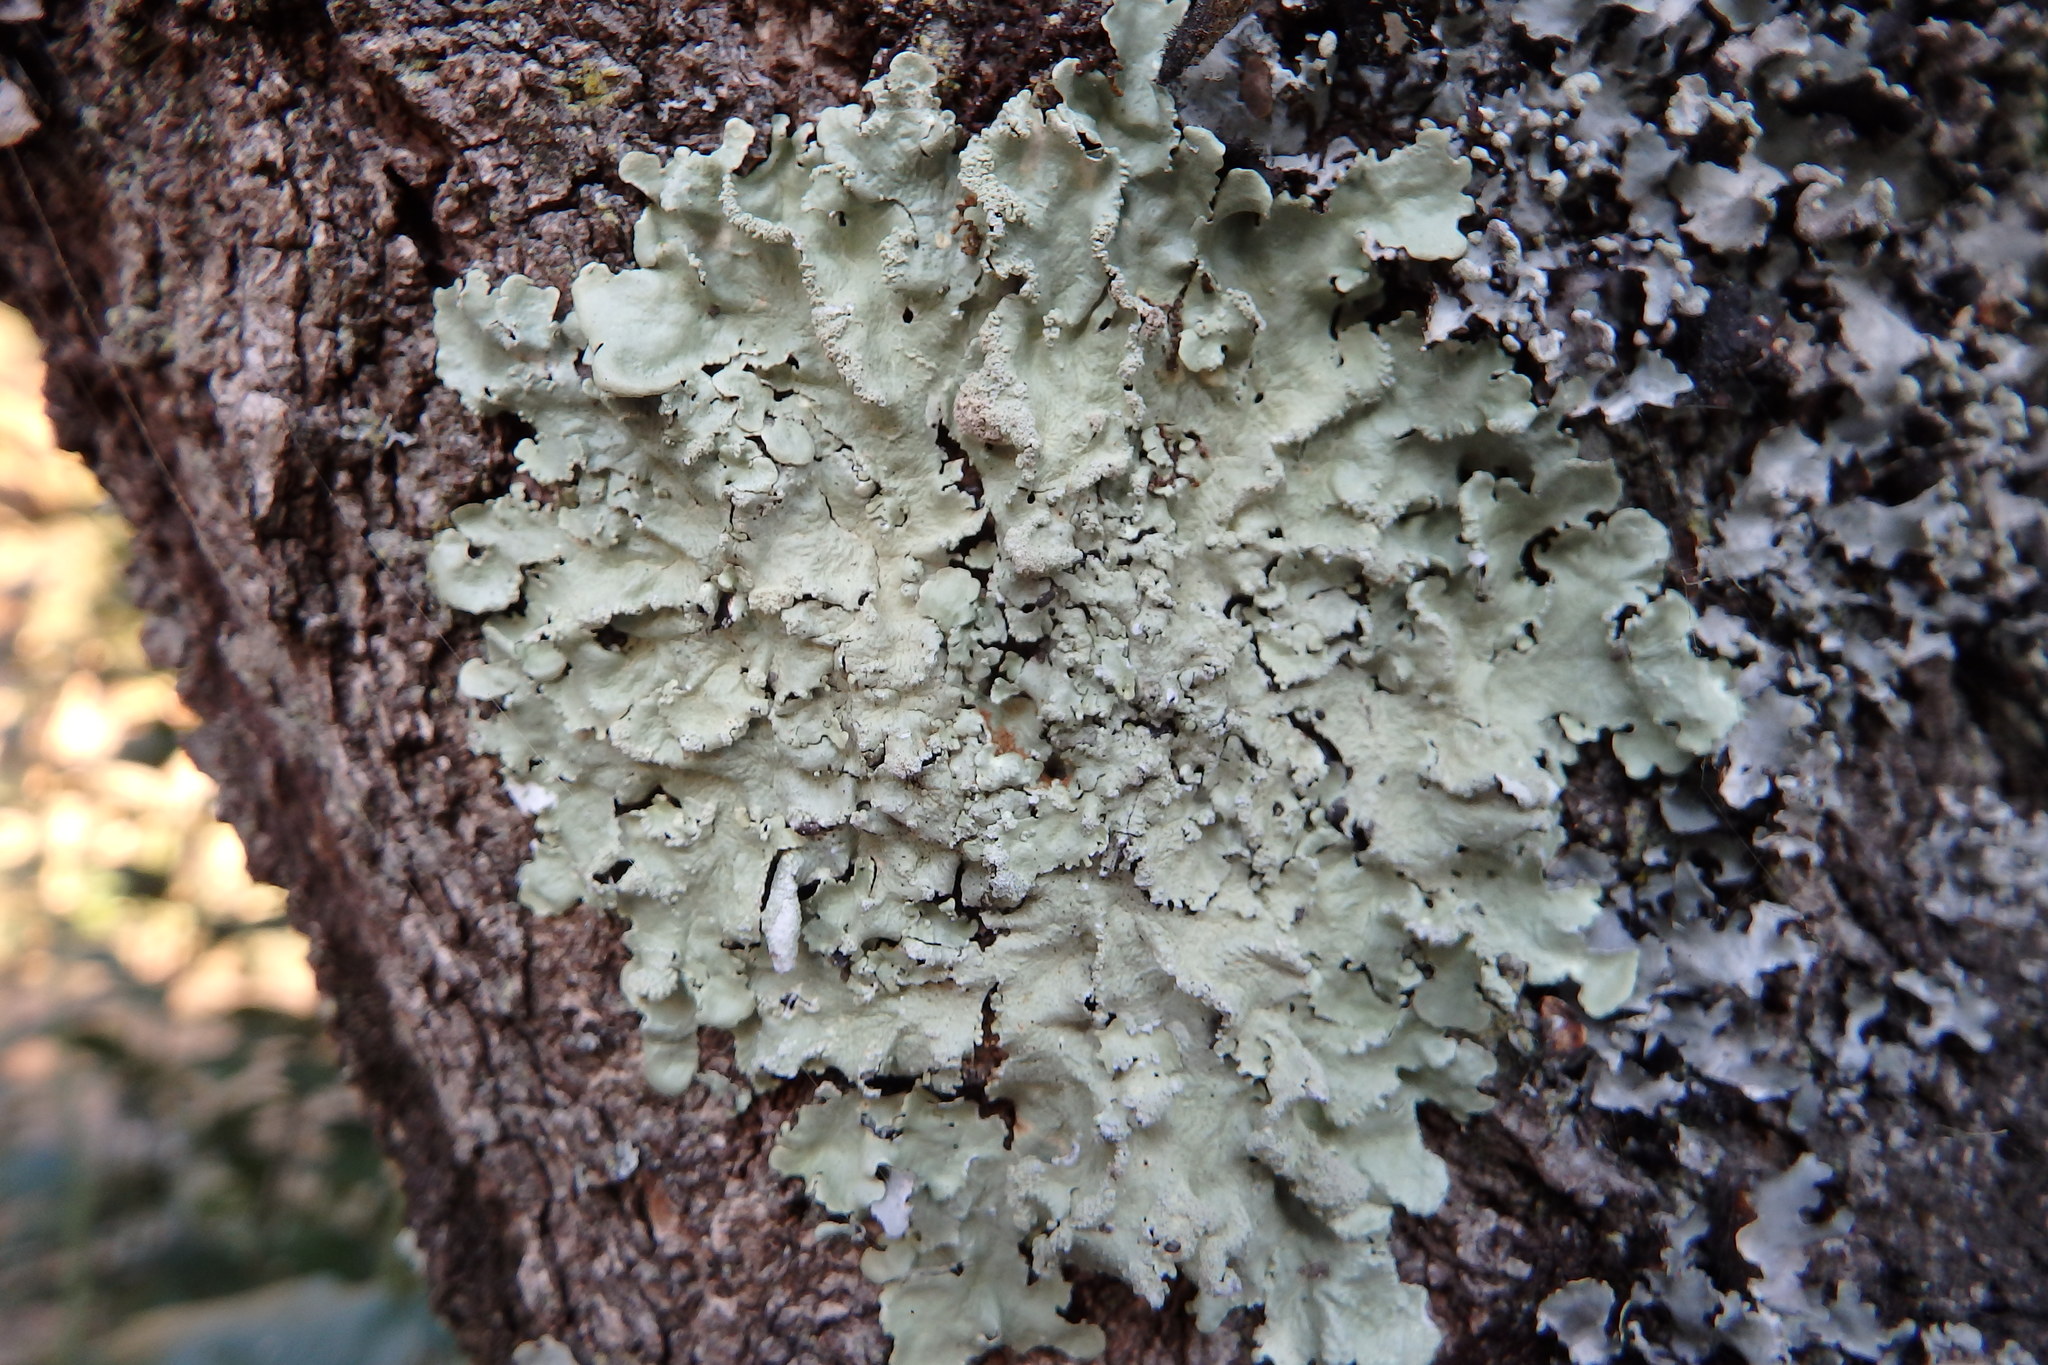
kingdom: Fungi
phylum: Ascomycota
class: Lecanoromycetes
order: Lecanorales
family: Parmeliaceae
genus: Flavoparmelia
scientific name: Flavoparmelia caperata
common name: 40-mile per hour lichen
